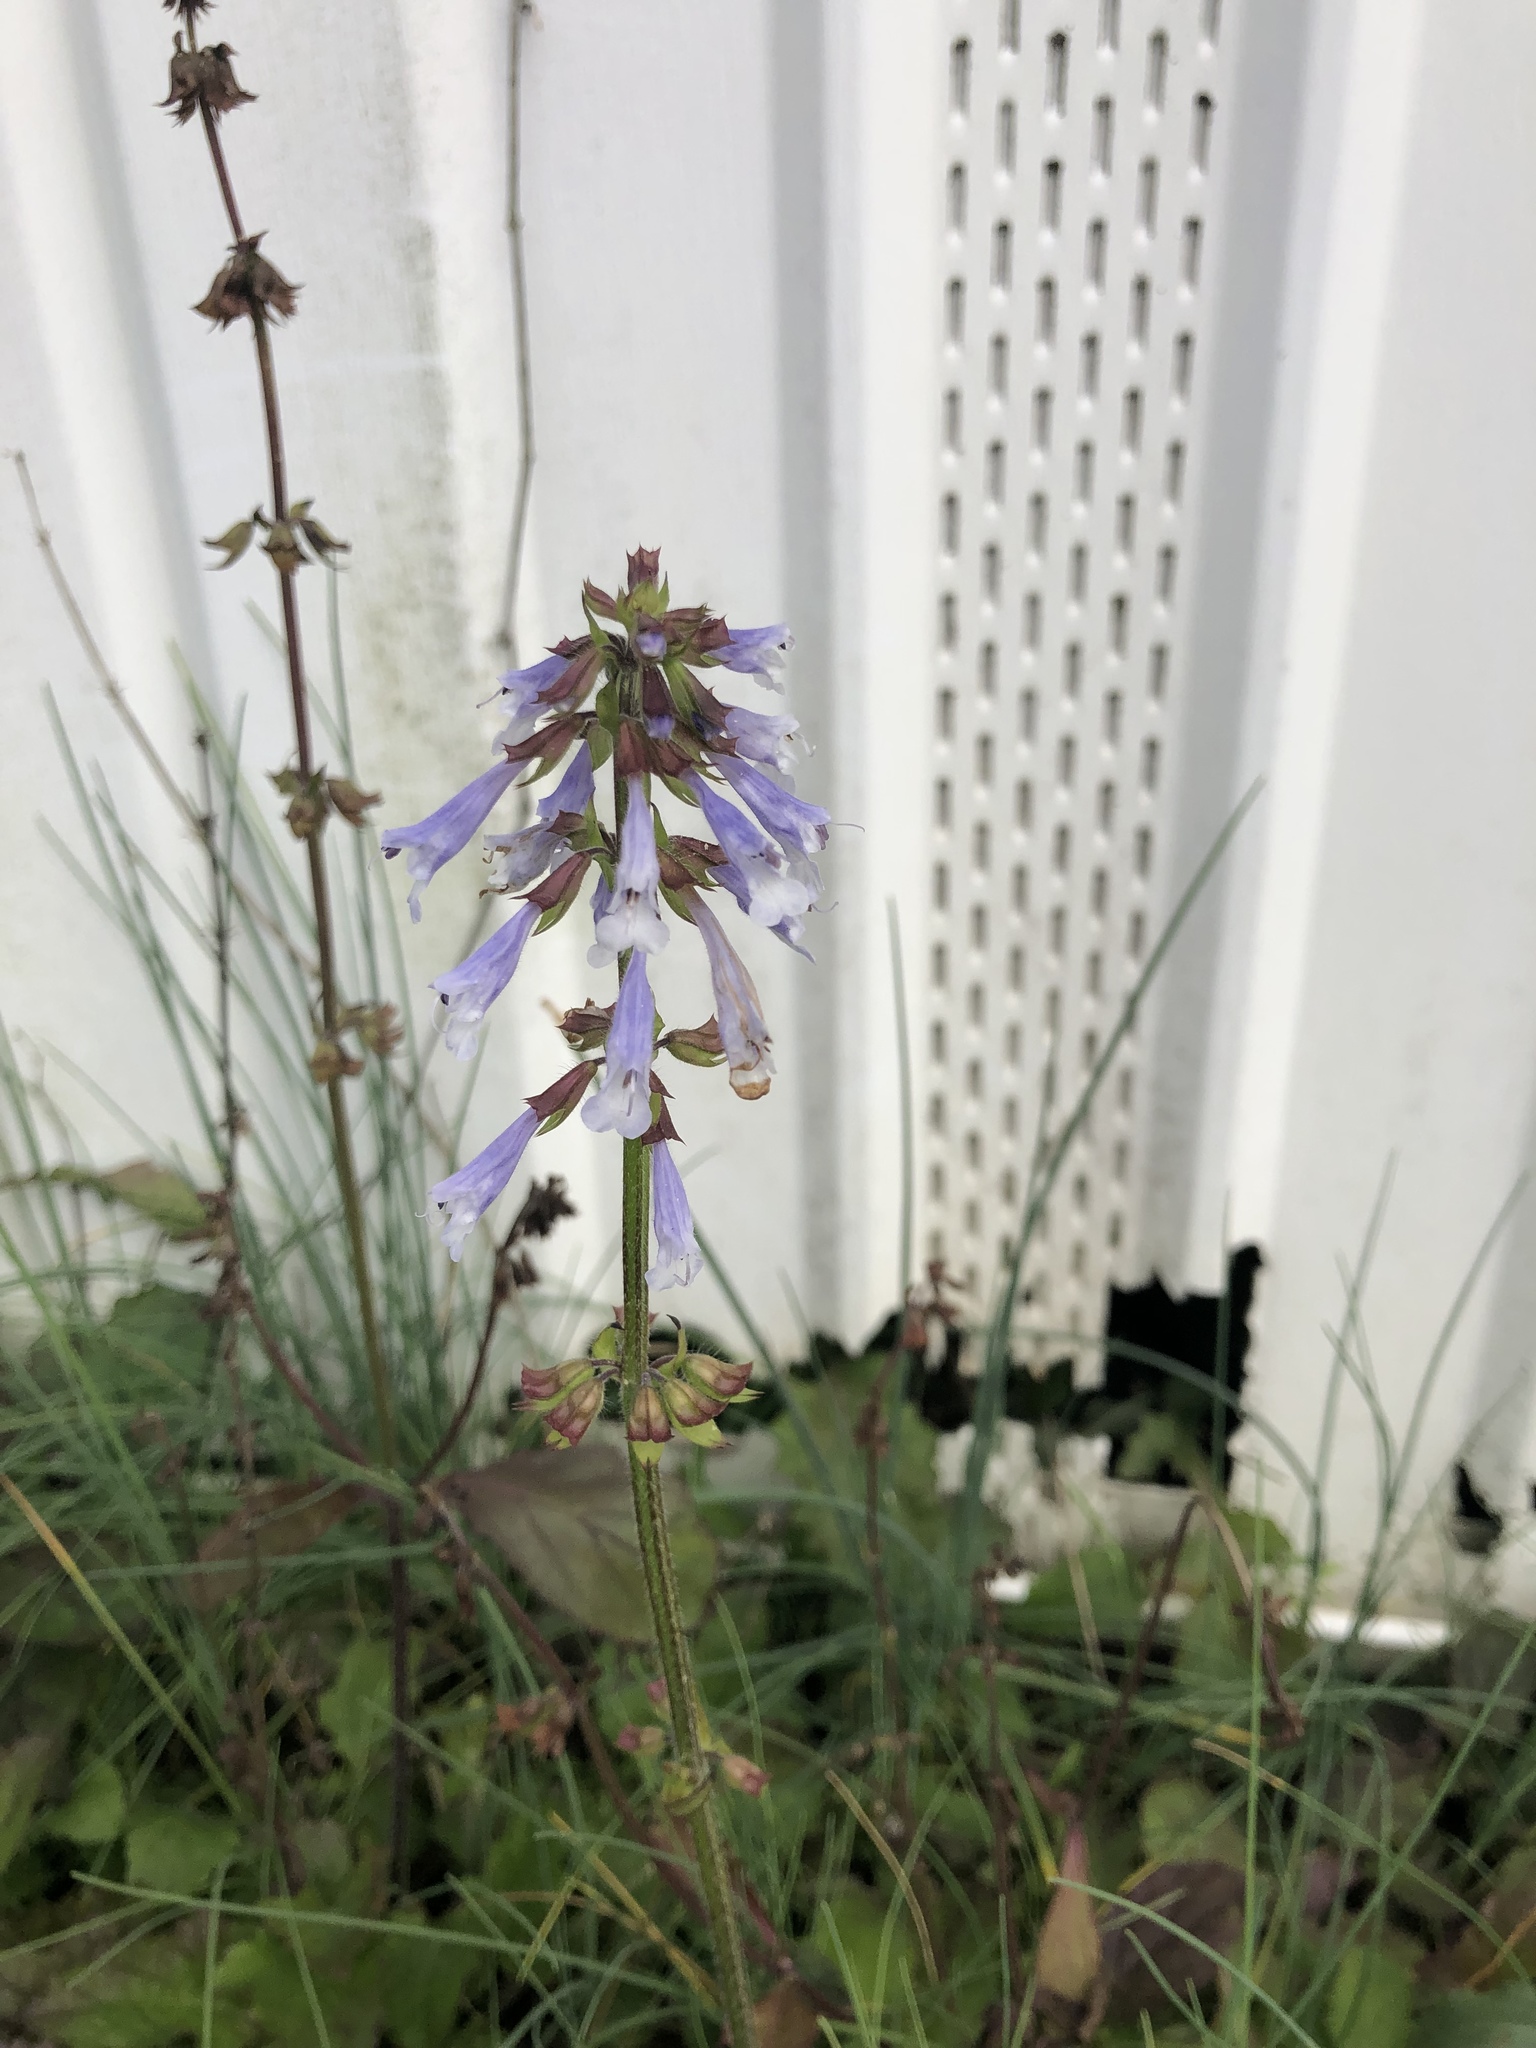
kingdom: Plantae
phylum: Tracheophyta
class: Magnoliopsida
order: Lamiales
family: Lamiaceae
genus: Salvia
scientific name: Salvia lyrata
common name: Cancerweed
